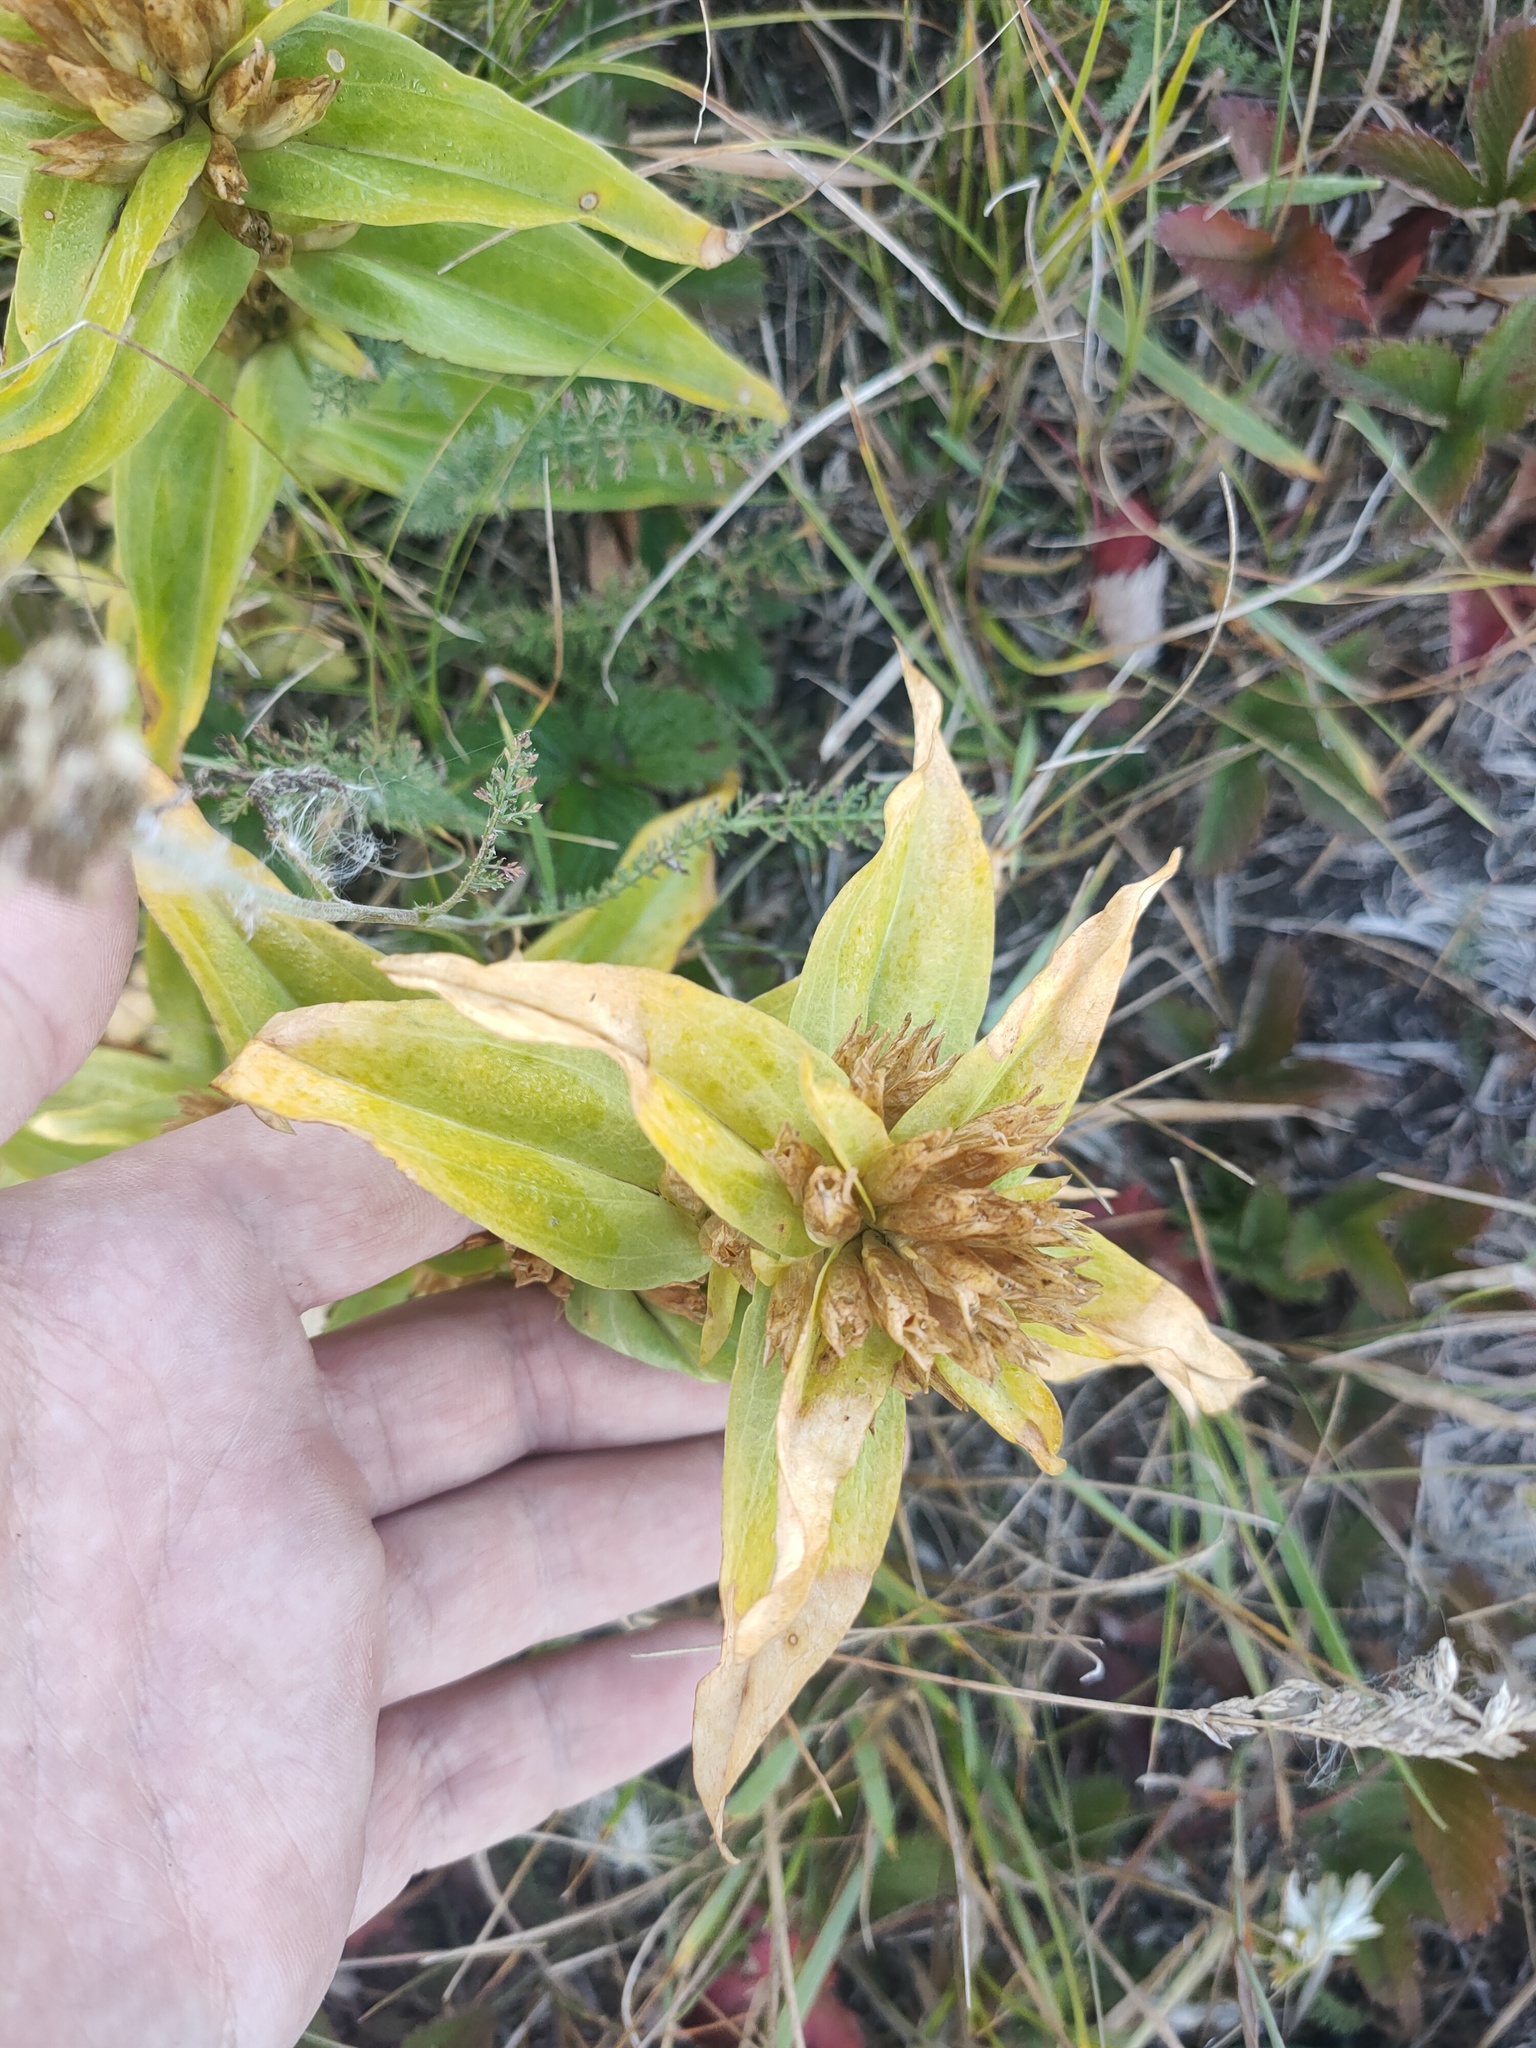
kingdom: Plantae
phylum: Tracheophyta
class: Magnoliopsida
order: Gentianales
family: Gentianaceae
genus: Gentiana
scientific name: Gentiana cruciata
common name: Cross gentian
